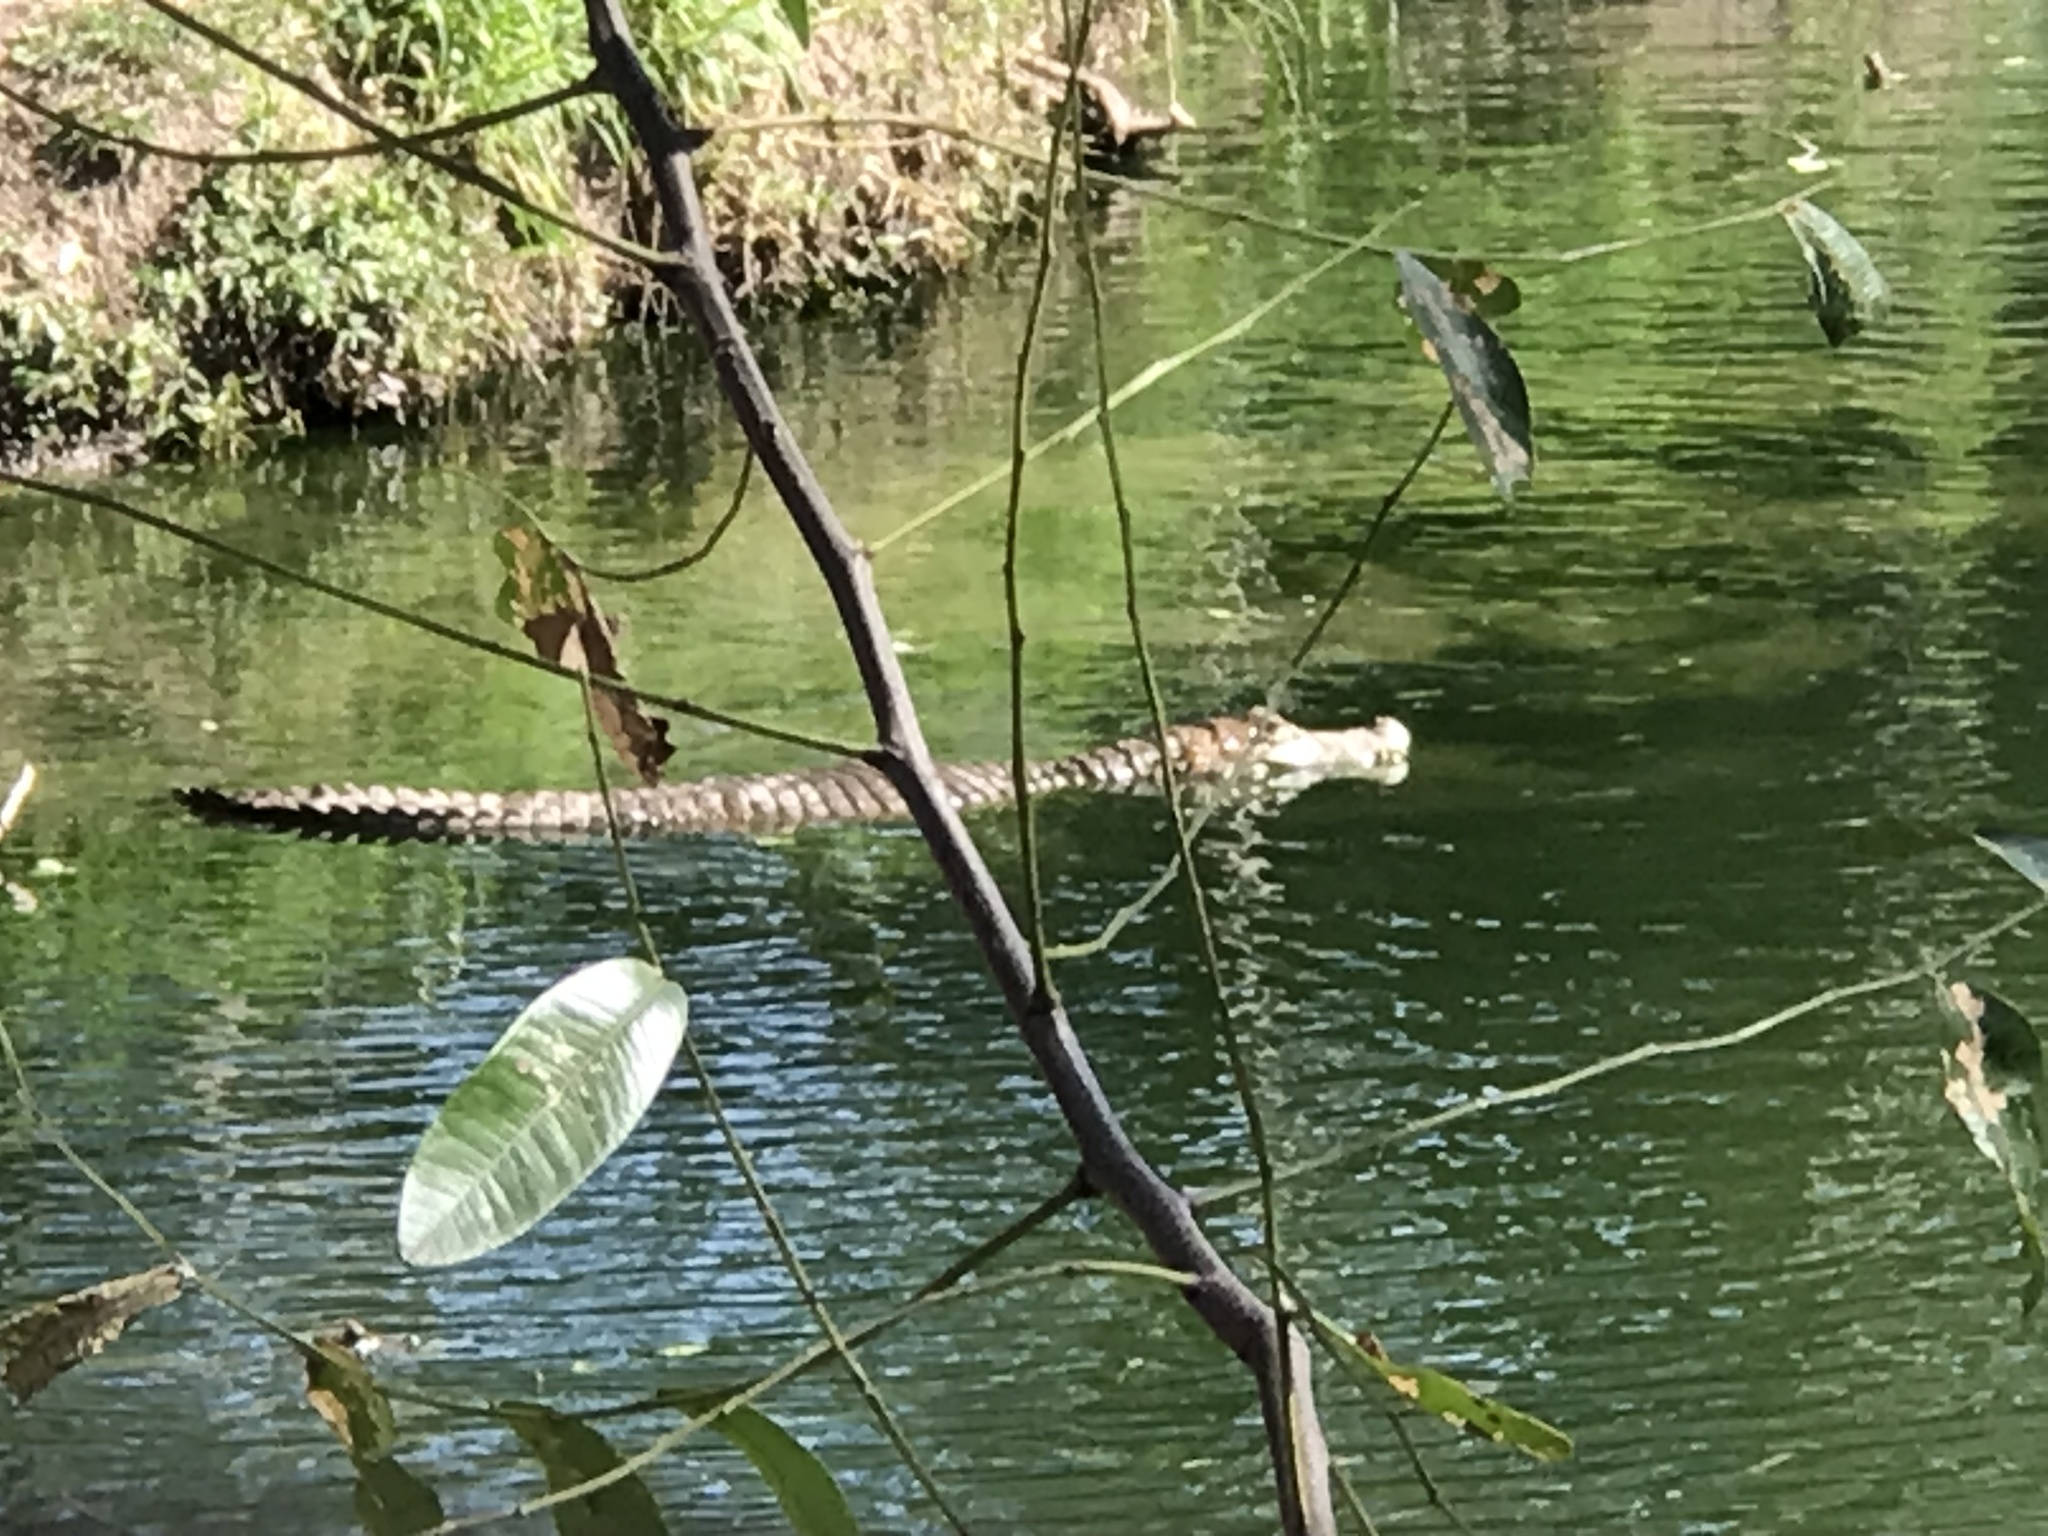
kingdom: Animalia
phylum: Chordata
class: Crocodylia
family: Alligatoridae
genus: Caiman
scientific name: Caiman yacare
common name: Yacare caiman
